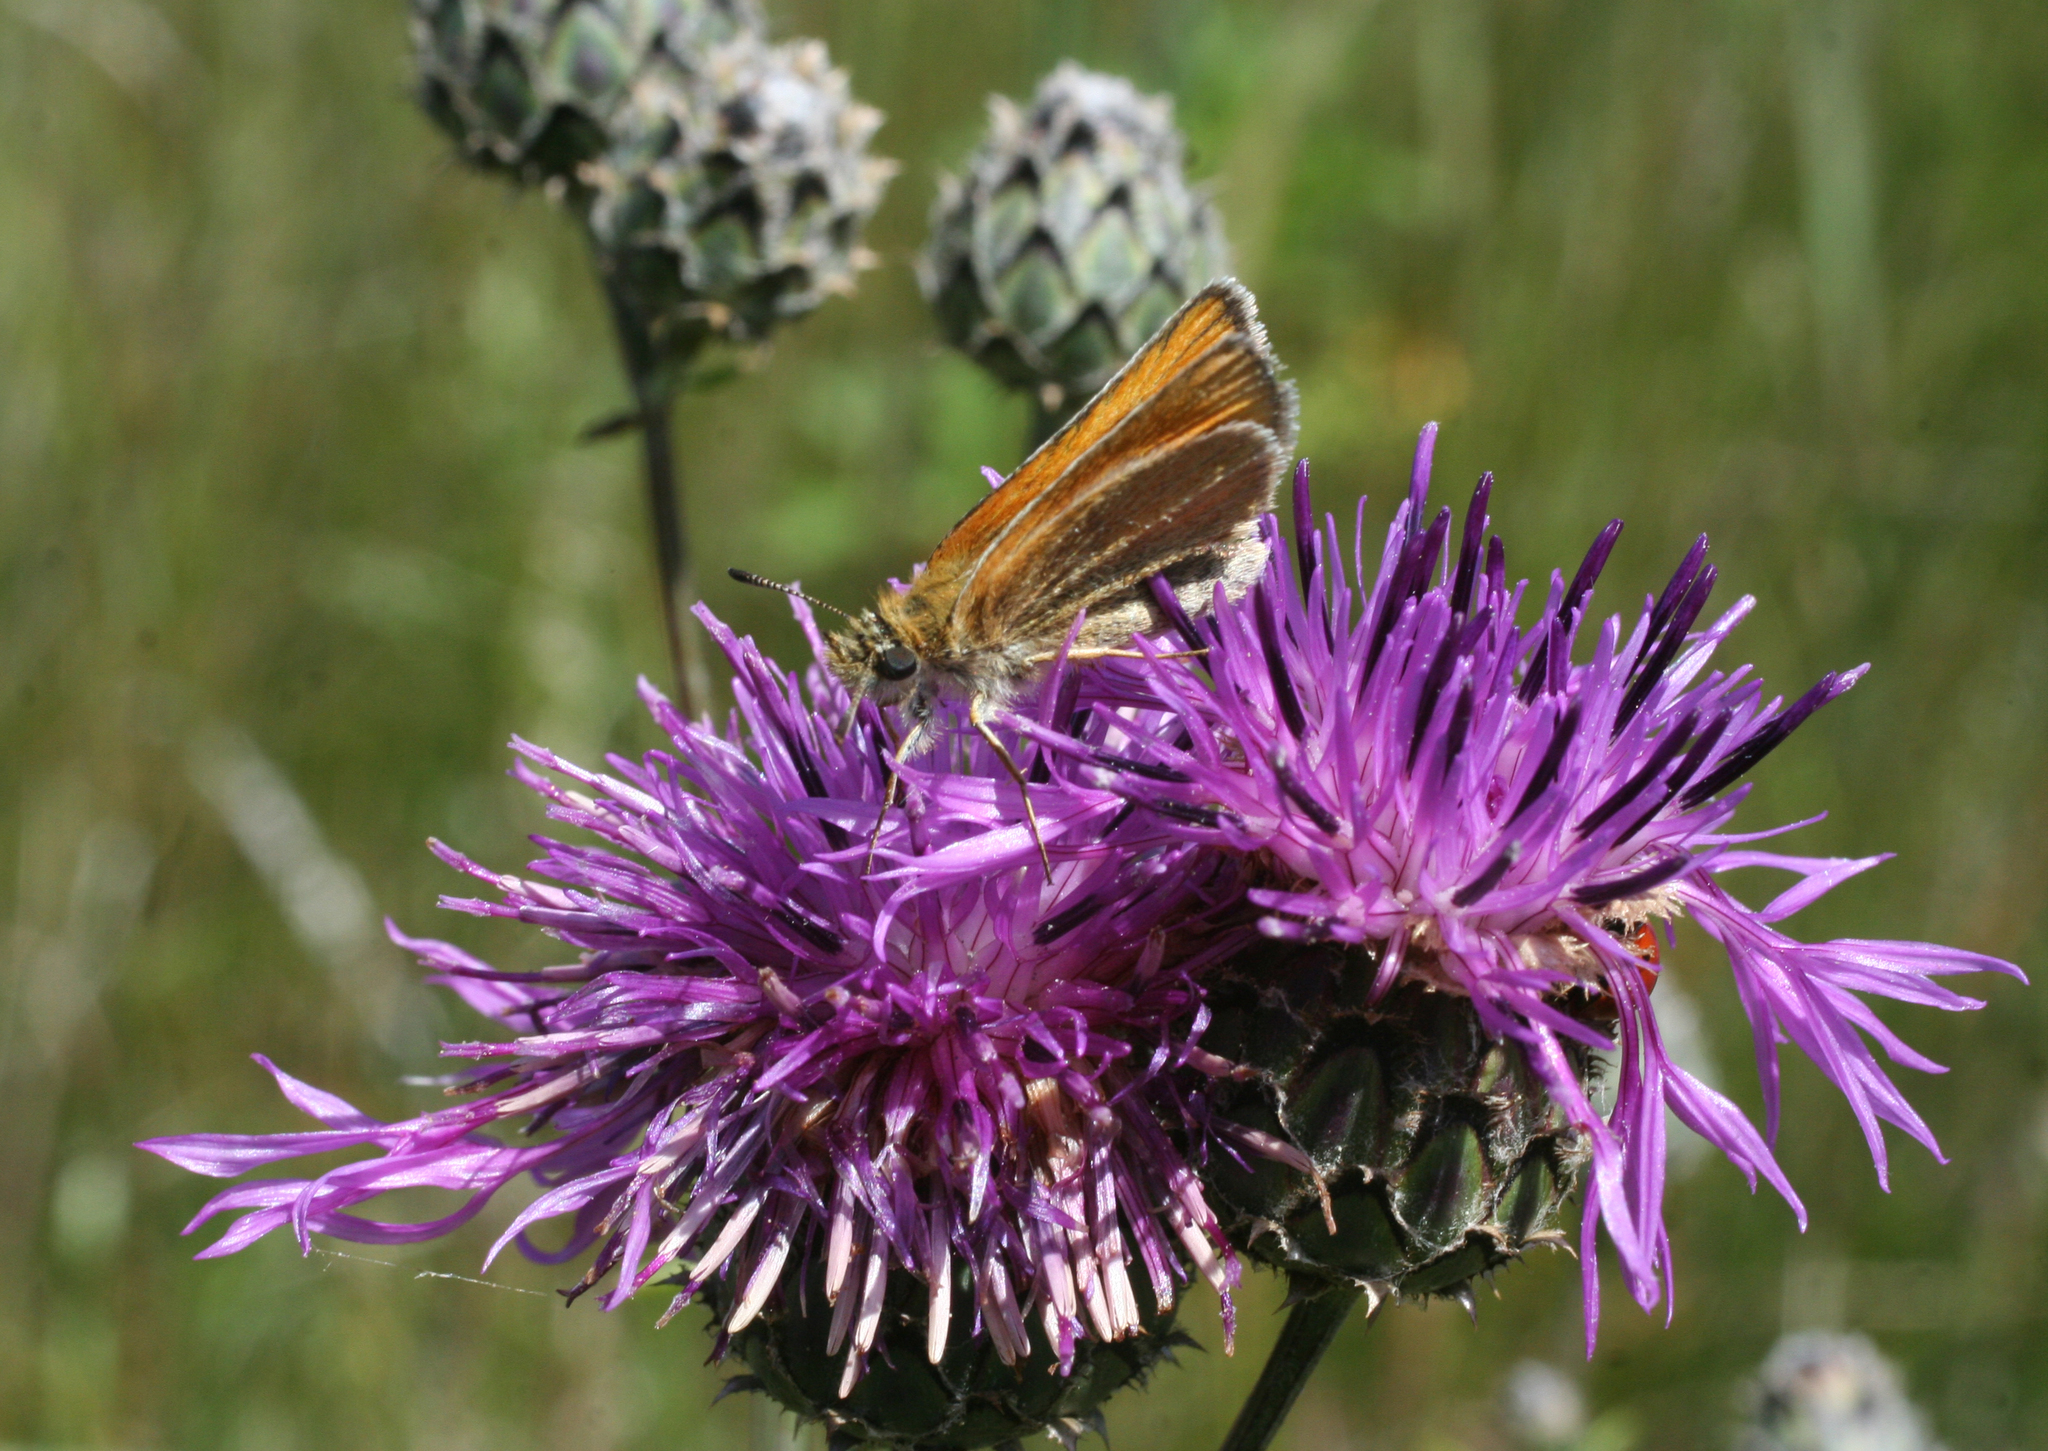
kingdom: Animalia
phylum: Arthropoda
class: Insecta
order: Lepidoptera
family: Hesperiidae
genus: Thymelicus
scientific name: Thymelicus lineola
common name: Essex skipper
